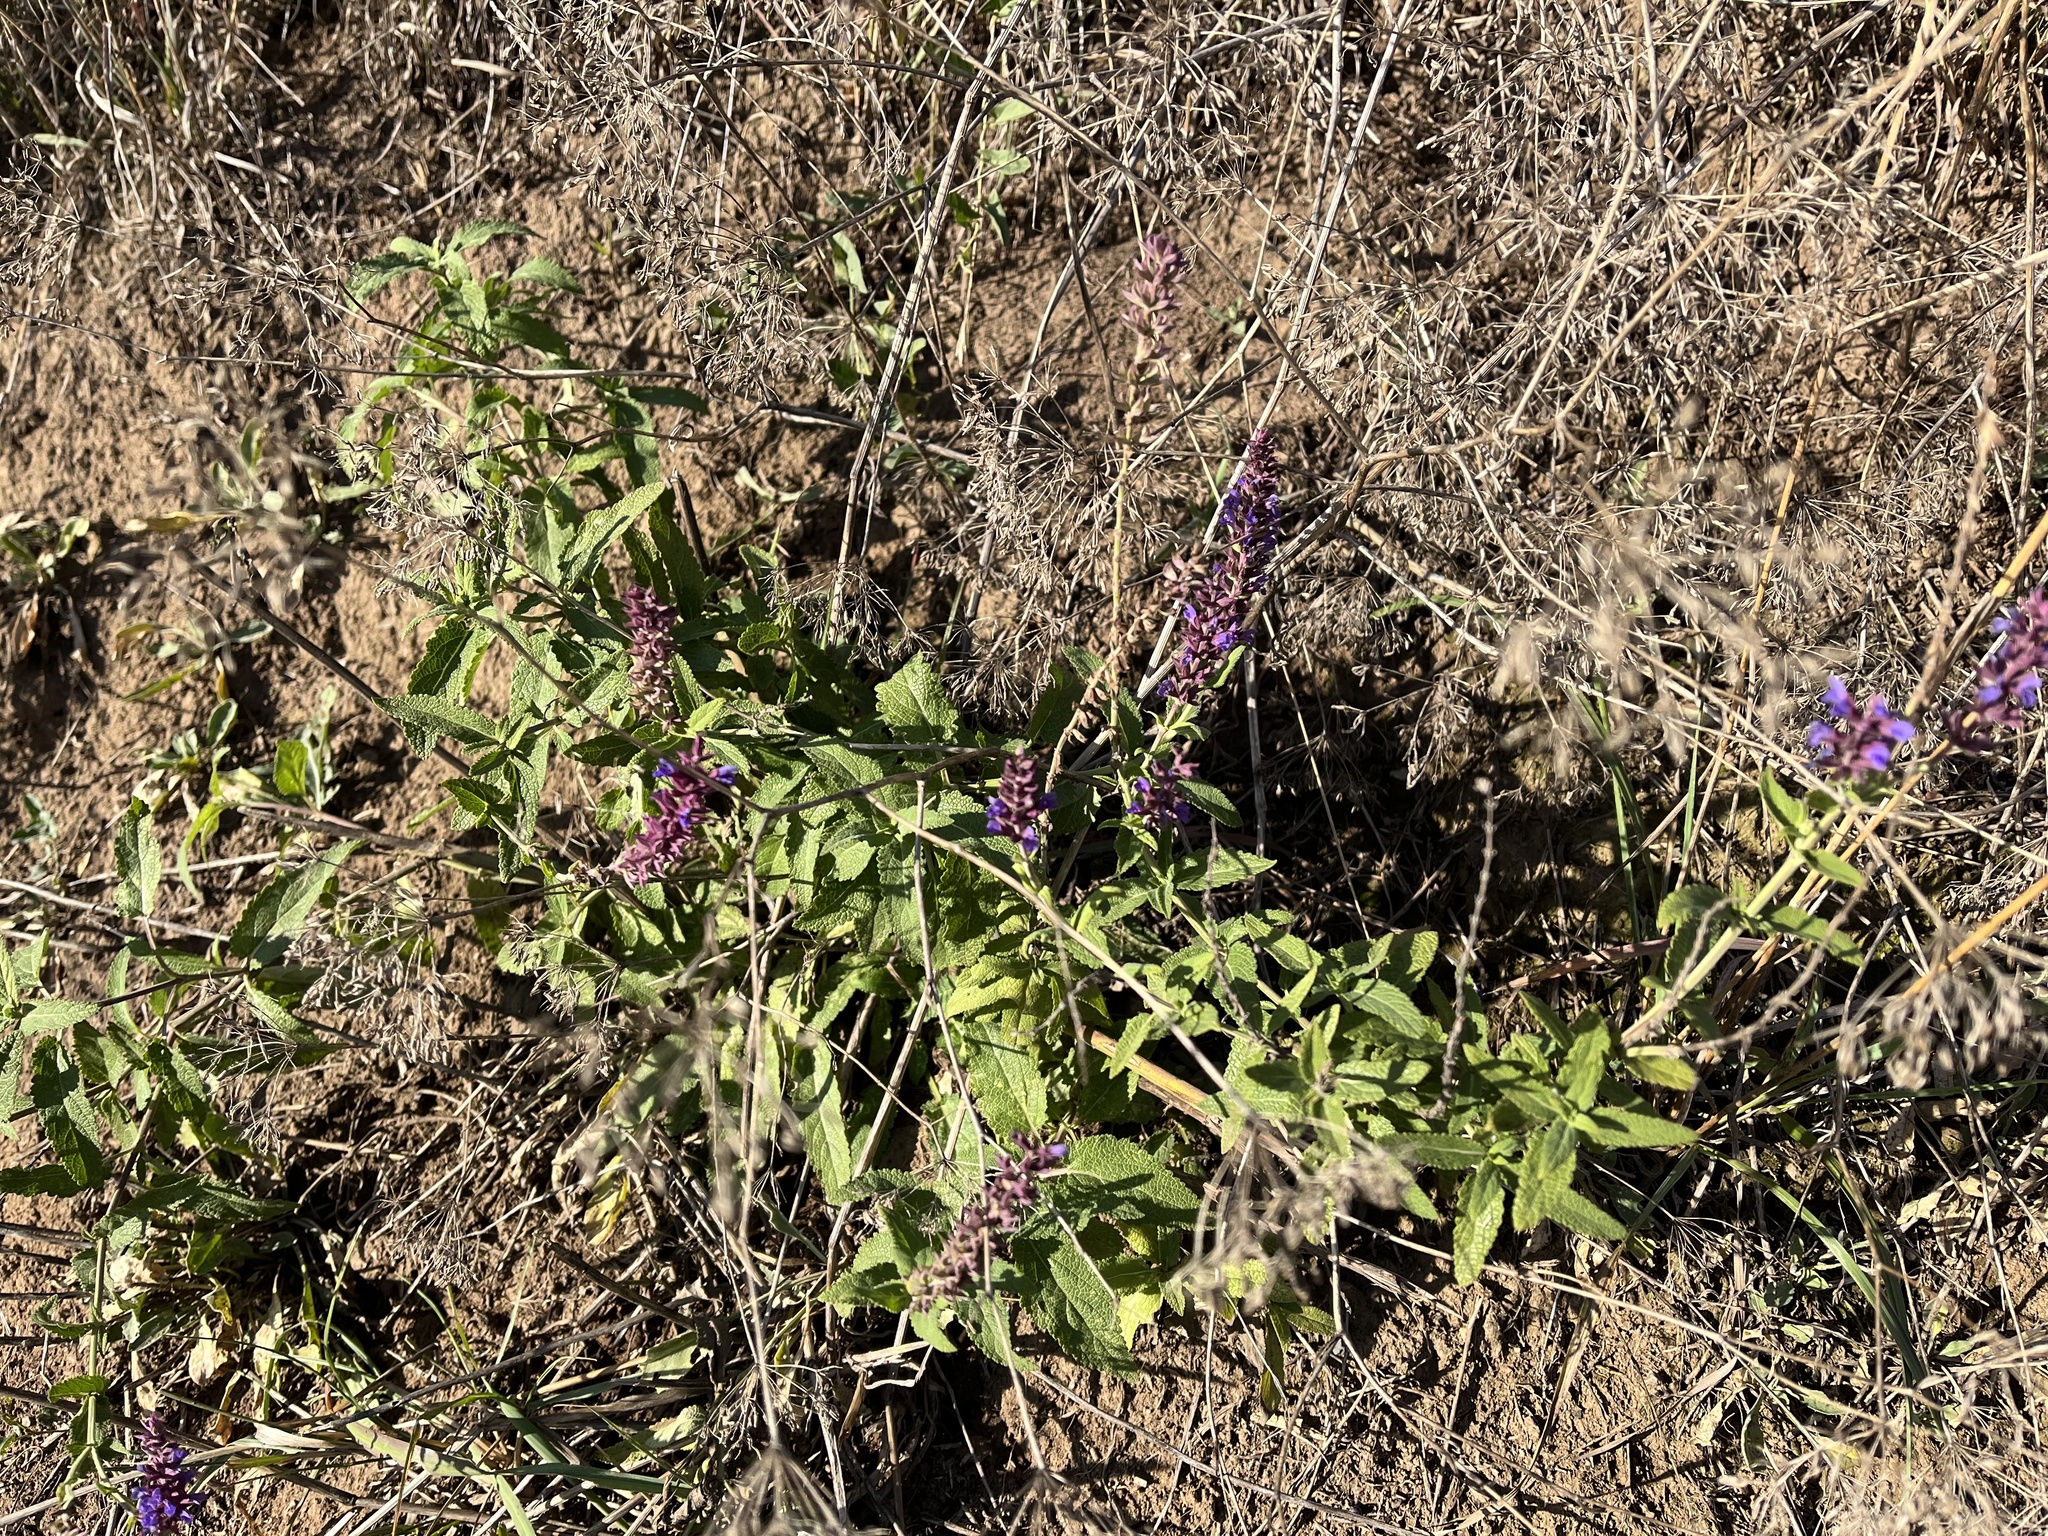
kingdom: Plantae
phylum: Tracheophyta
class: Magnoliopsida
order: Lamiales
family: Lamiaceae
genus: Salvia
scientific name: Salvia nemorosa
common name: Balkan clary
